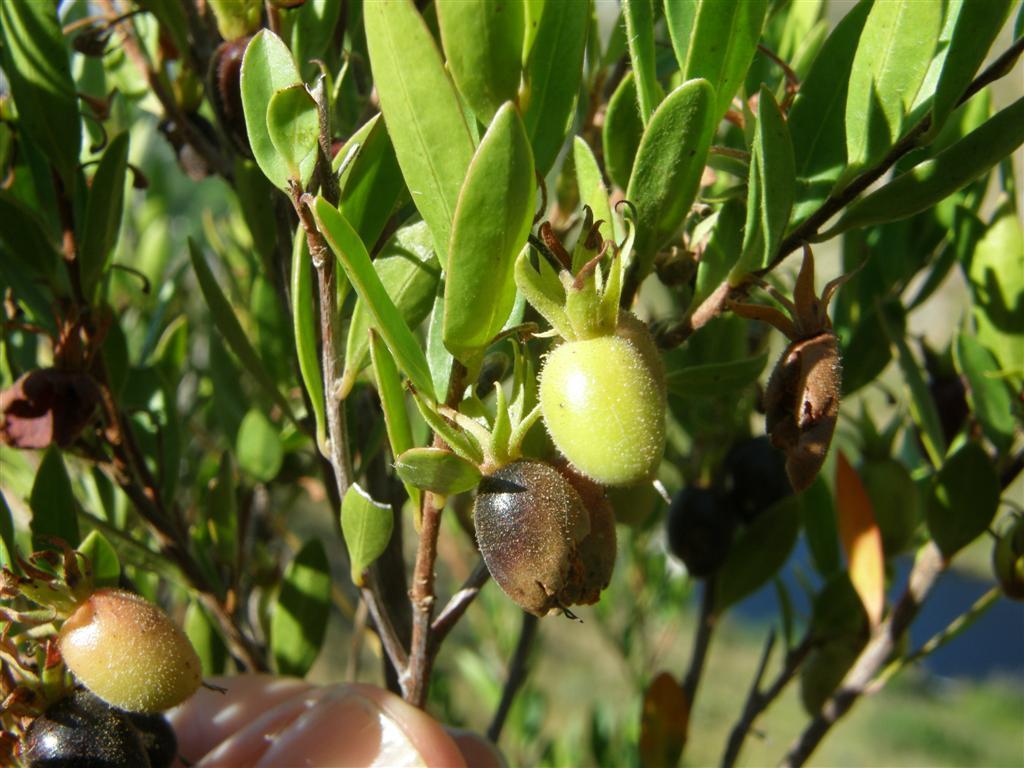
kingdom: Plantae
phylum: Tracheophyta
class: Magnoliopsida
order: Ericales
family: Ebenaceae
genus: Diospyros
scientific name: Diospyros glabra
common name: Fynbos star apple
